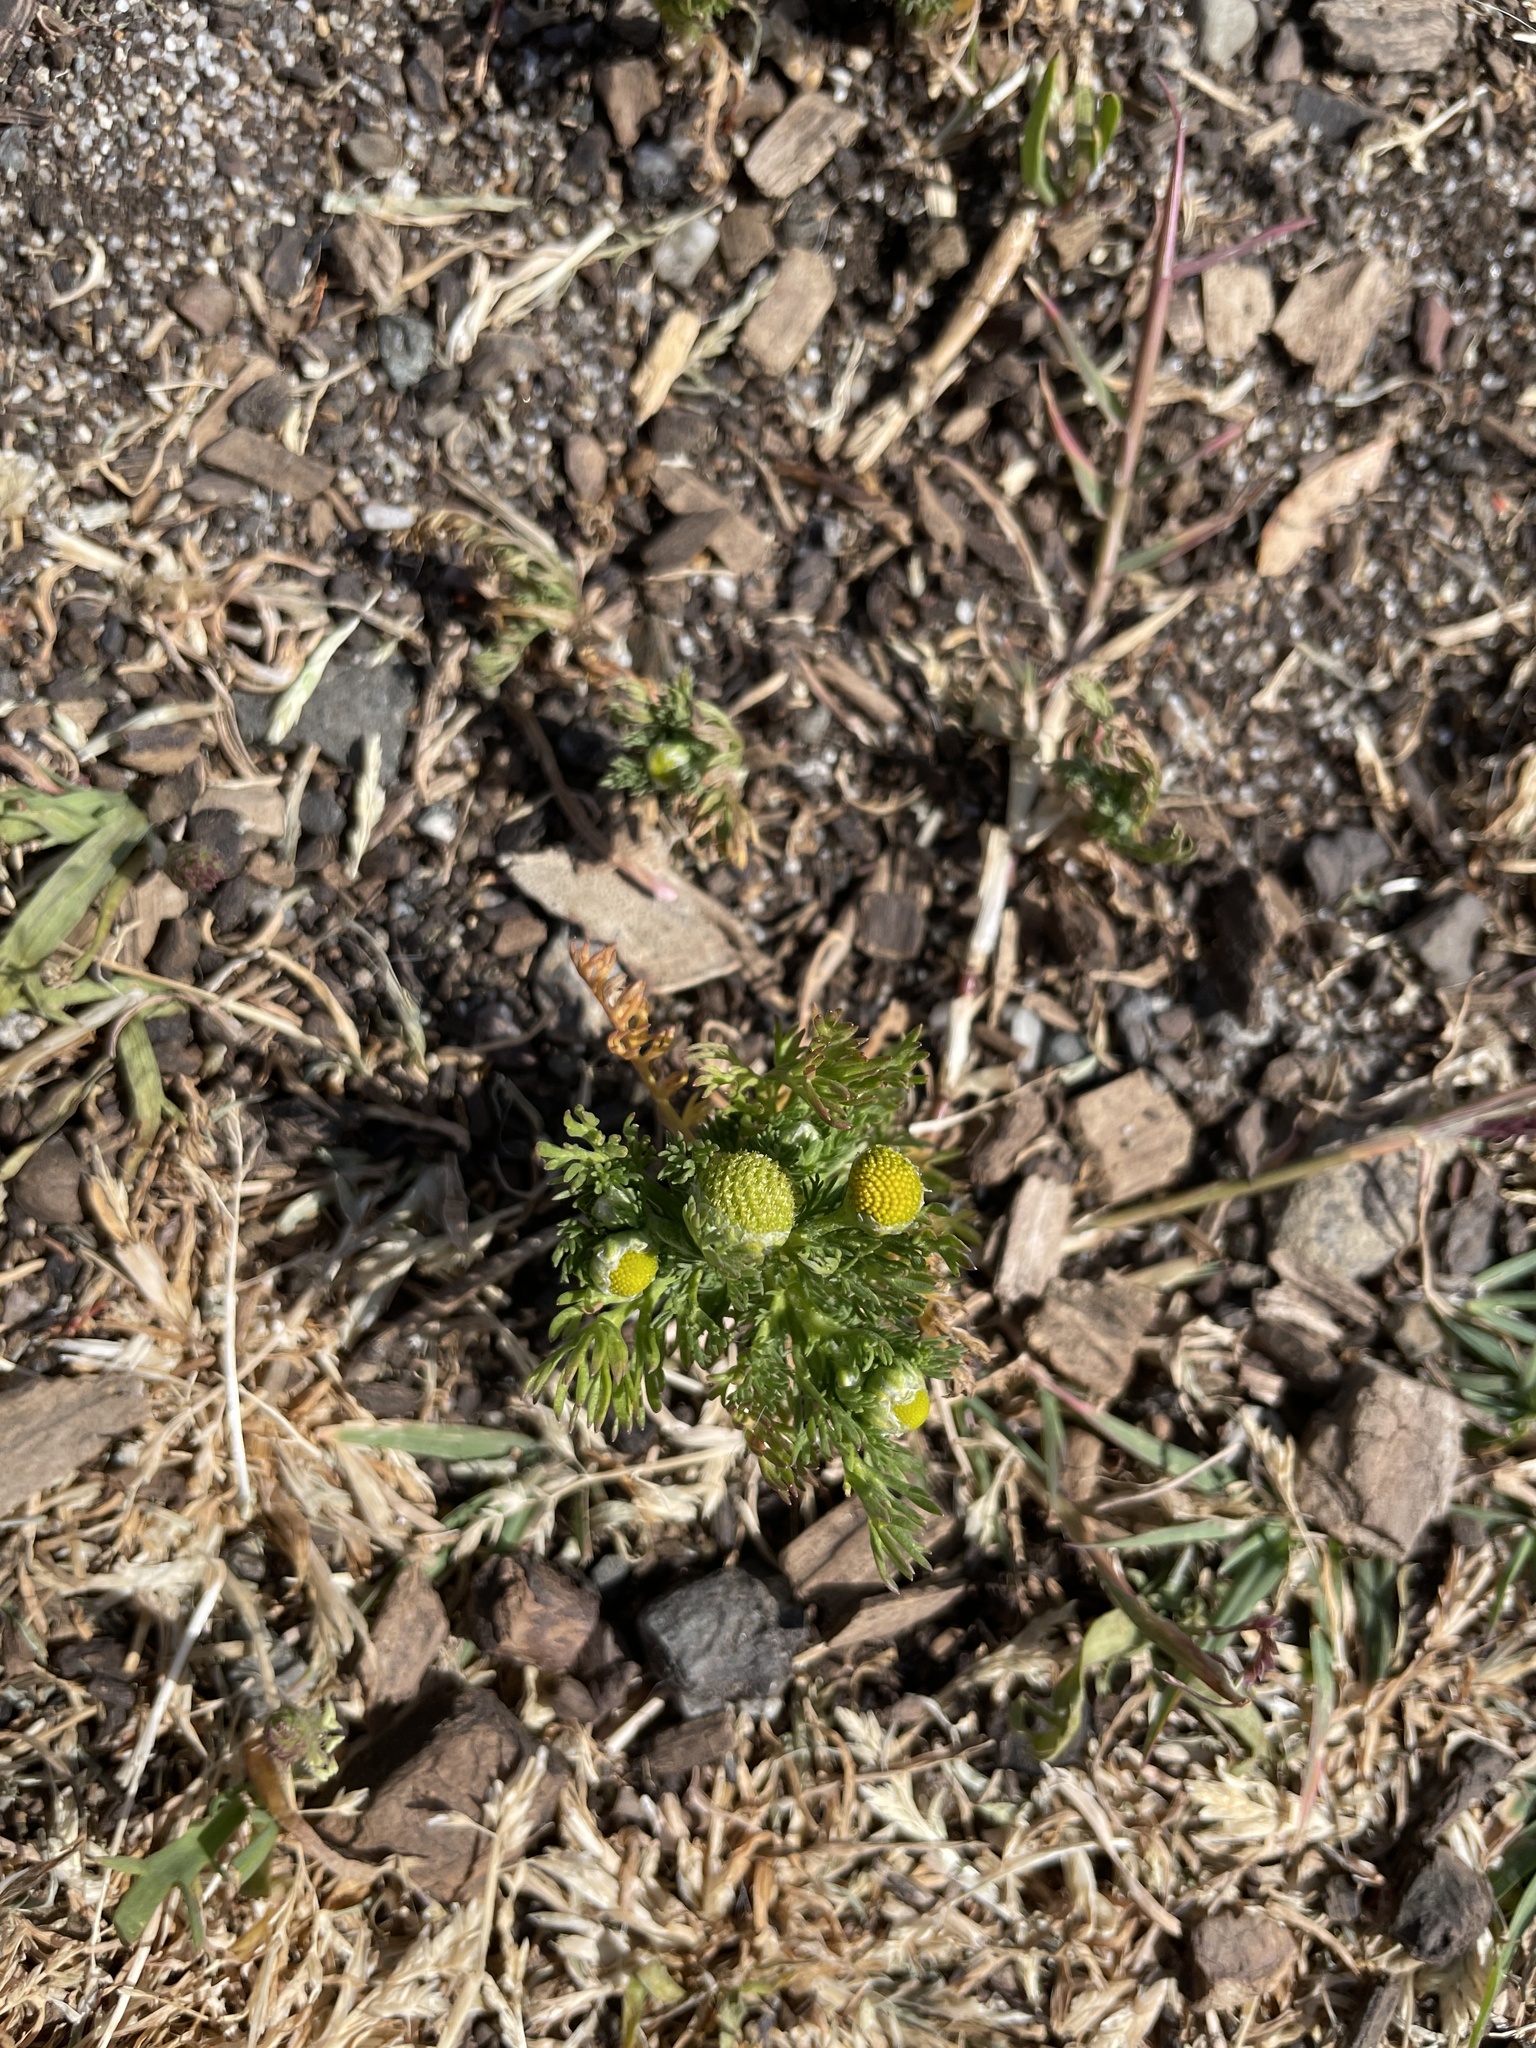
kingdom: Plantae
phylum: Tracheophyta
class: Magnoliopsida
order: Asterales
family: Asteraceae
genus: Matricaria
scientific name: Matricaria discoidea
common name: Disc mayweed
